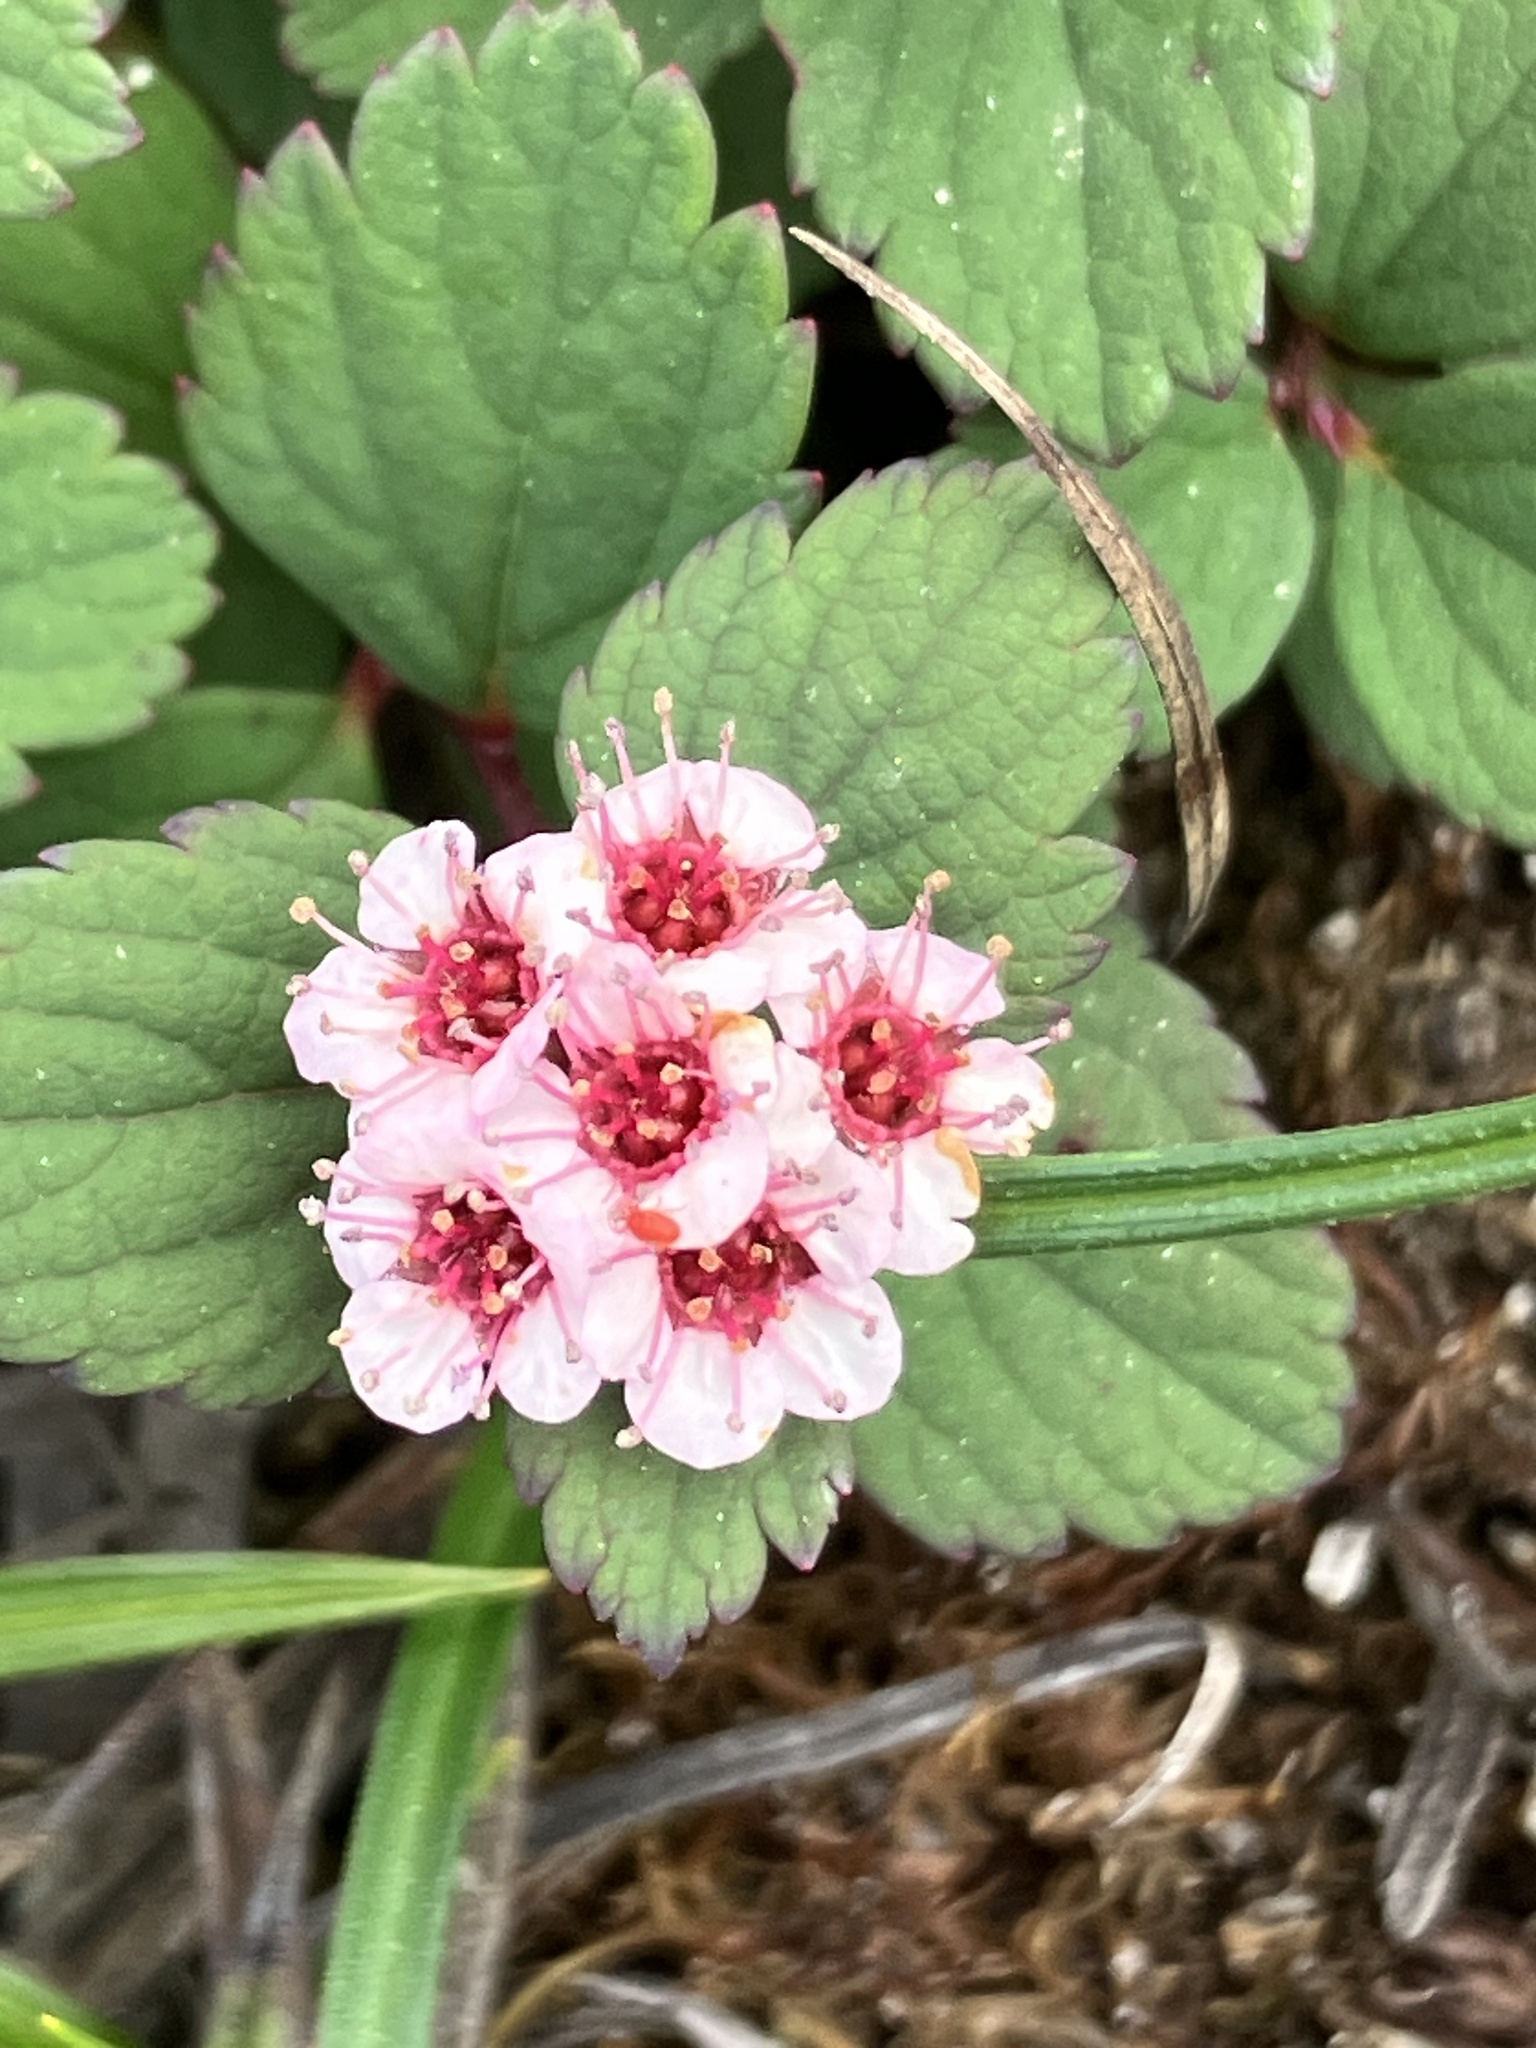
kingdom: Plantae
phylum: Tracheophyta
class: Magnoliopsida
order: Rosales
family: Rosaceae
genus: Spiraea
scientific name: Spiraea morrisonicola
